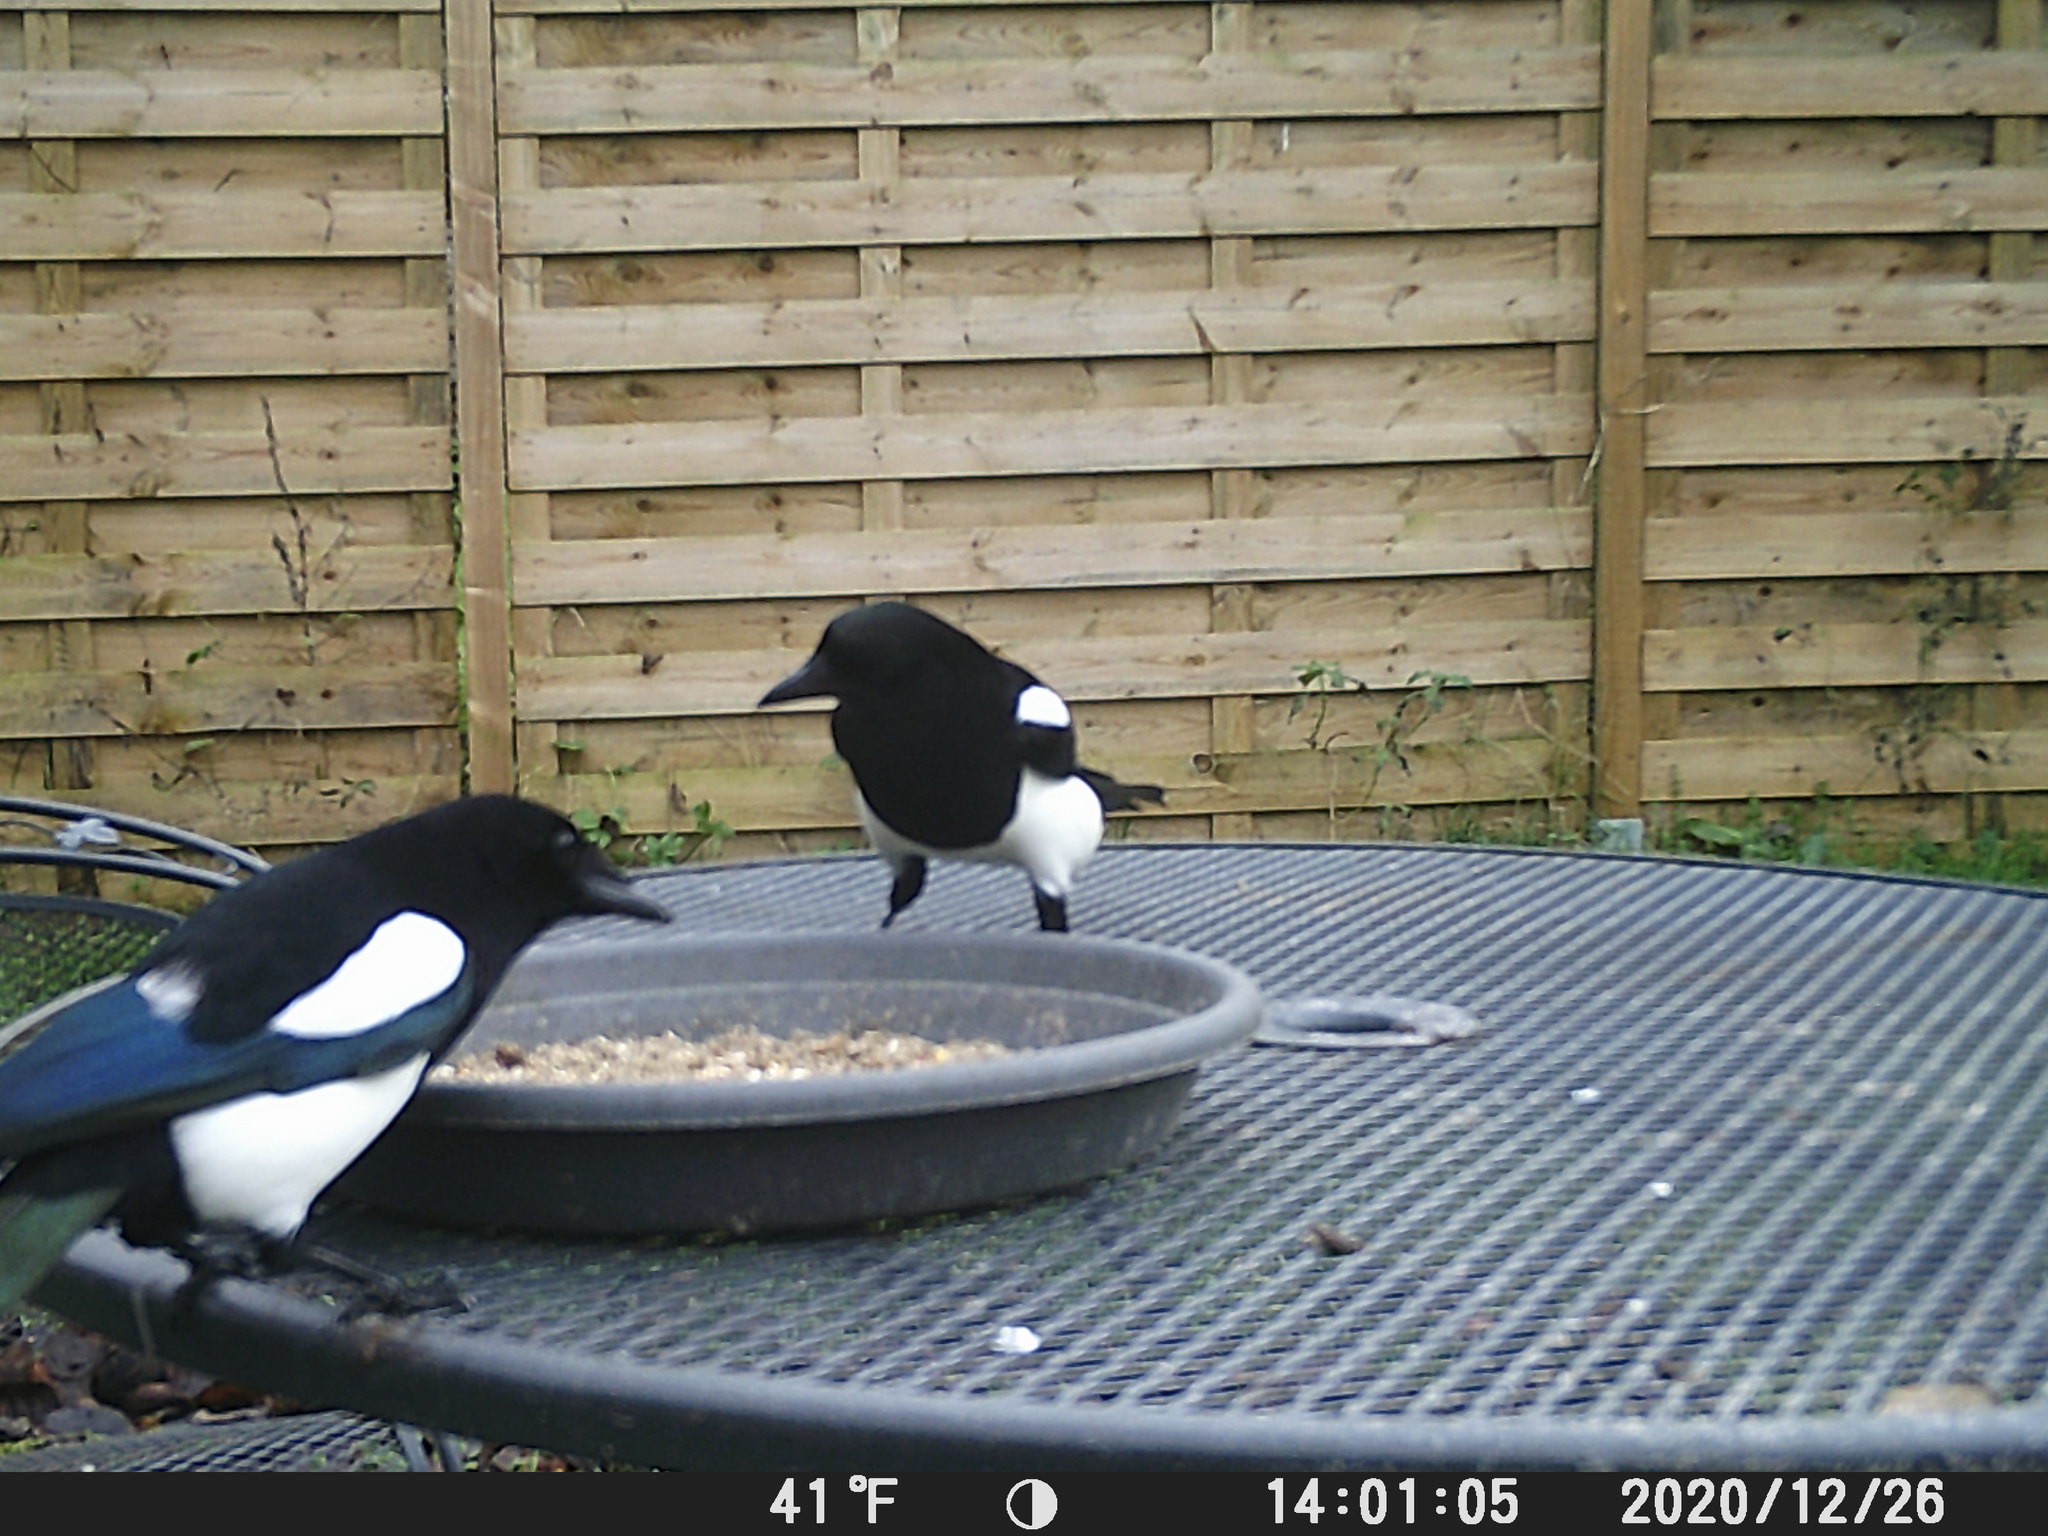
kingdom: Animalia
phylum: Chordata
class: Aves
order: Passeriformes
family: Corvidae
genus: Pica
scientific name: Pica pica
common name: Eurasian magpie
